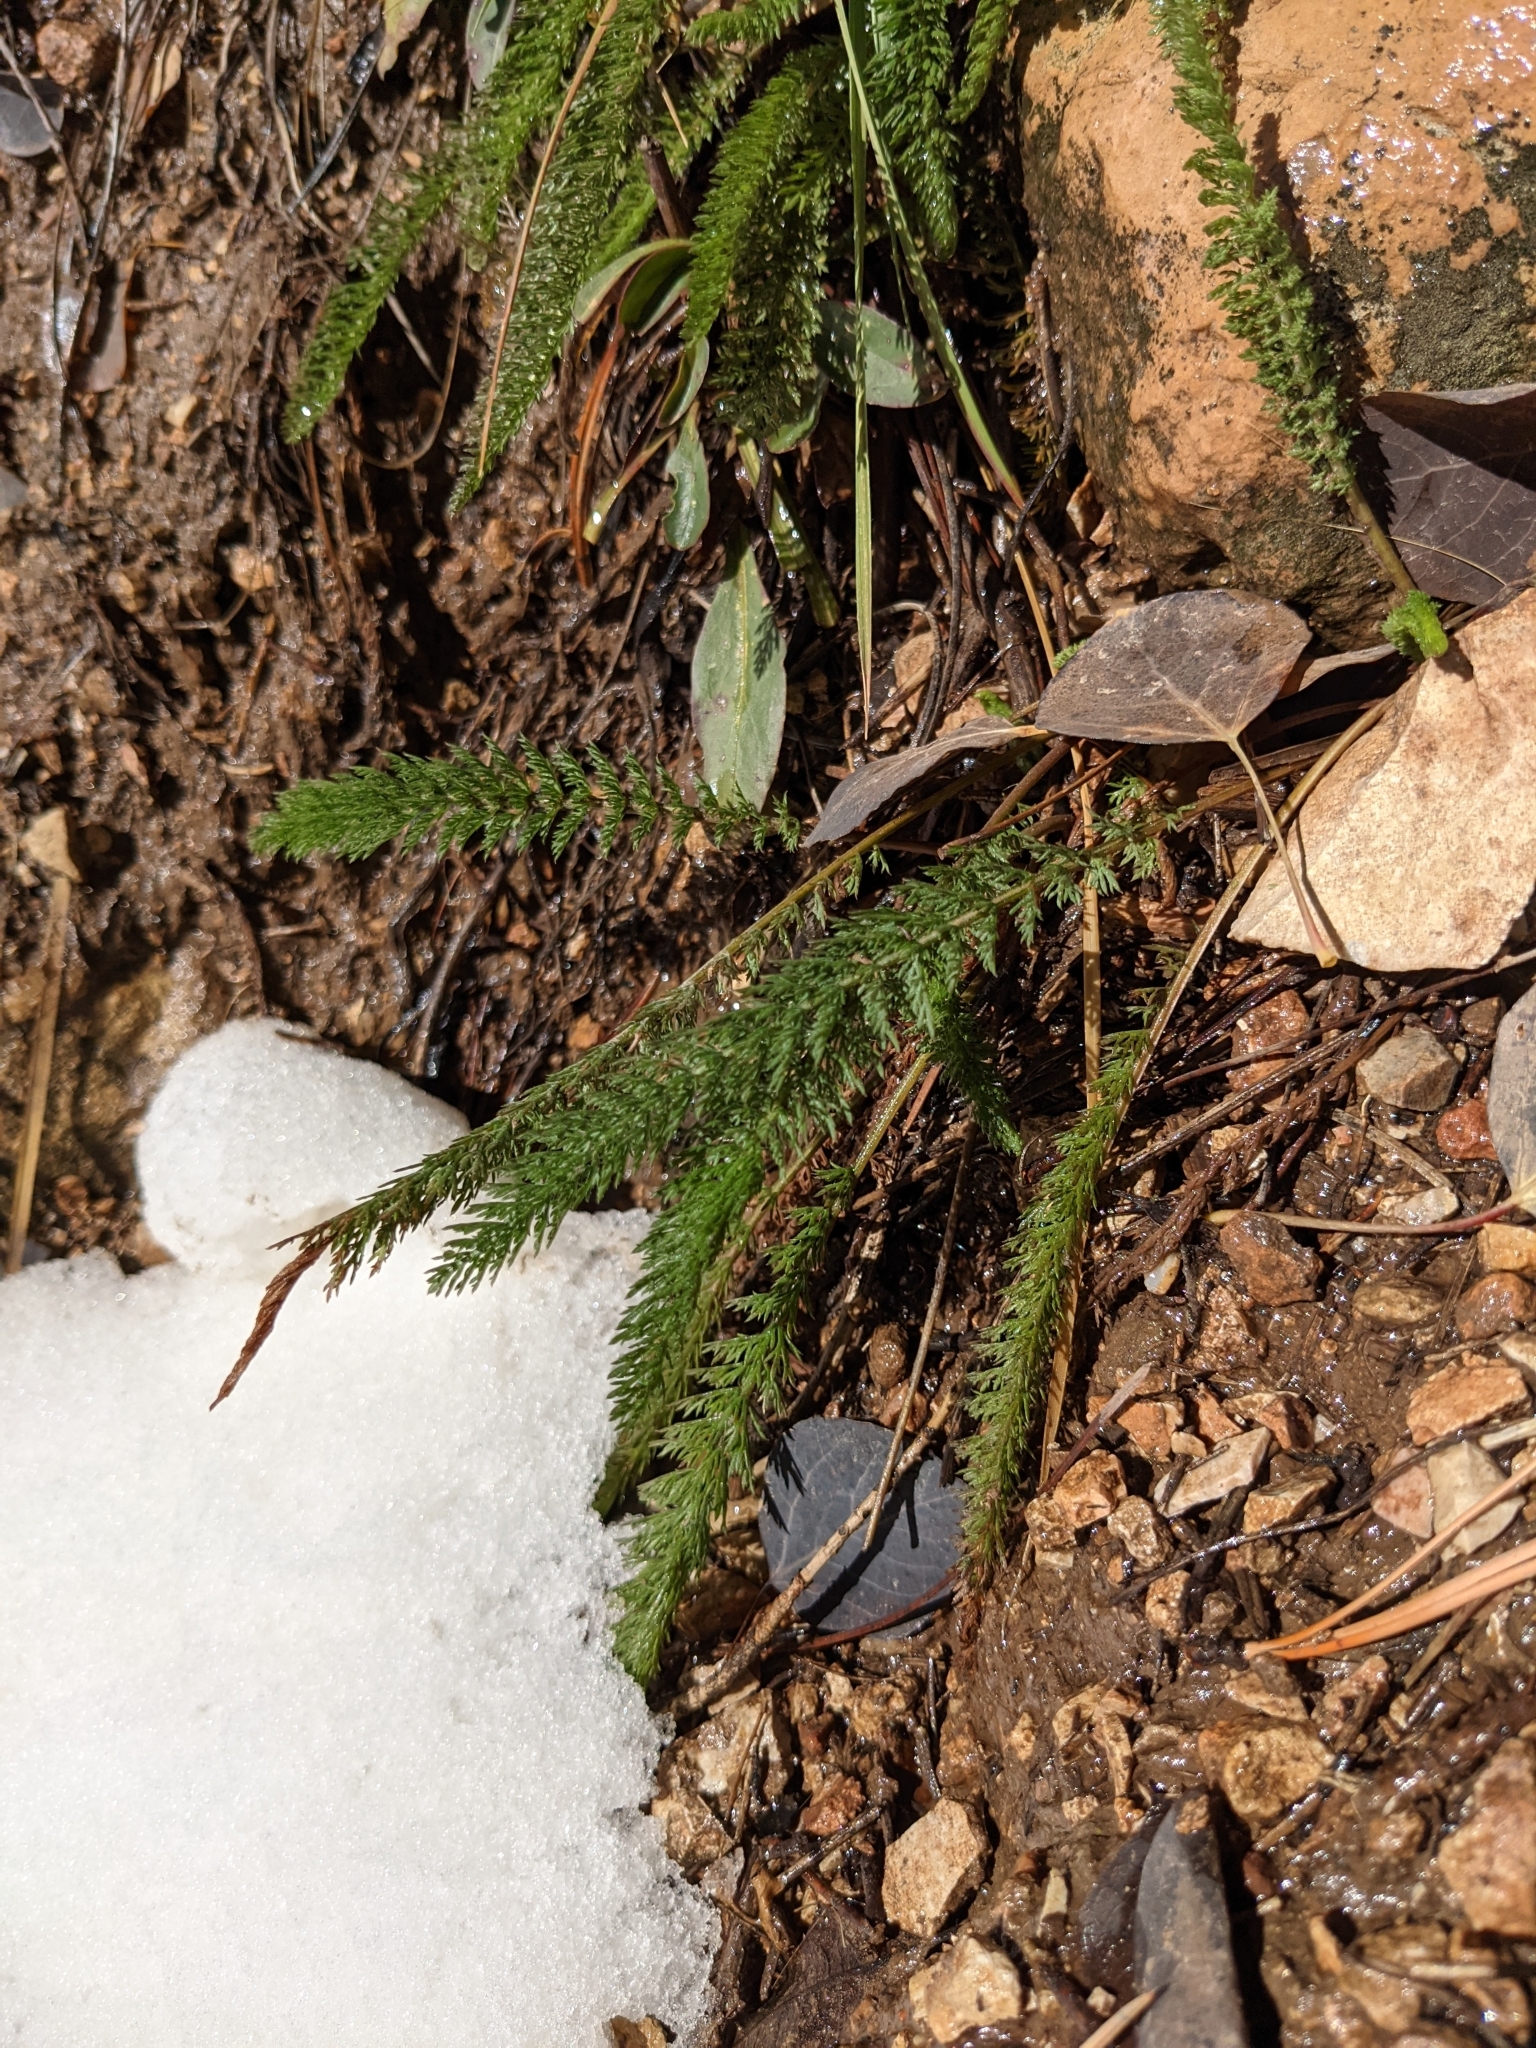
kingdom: Plantae
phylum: Tracheophyta
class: Magnoliopsida
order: Asterales
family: Asteraceae
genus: Achillea
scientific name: Achillea millefolium
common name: Yarrow
